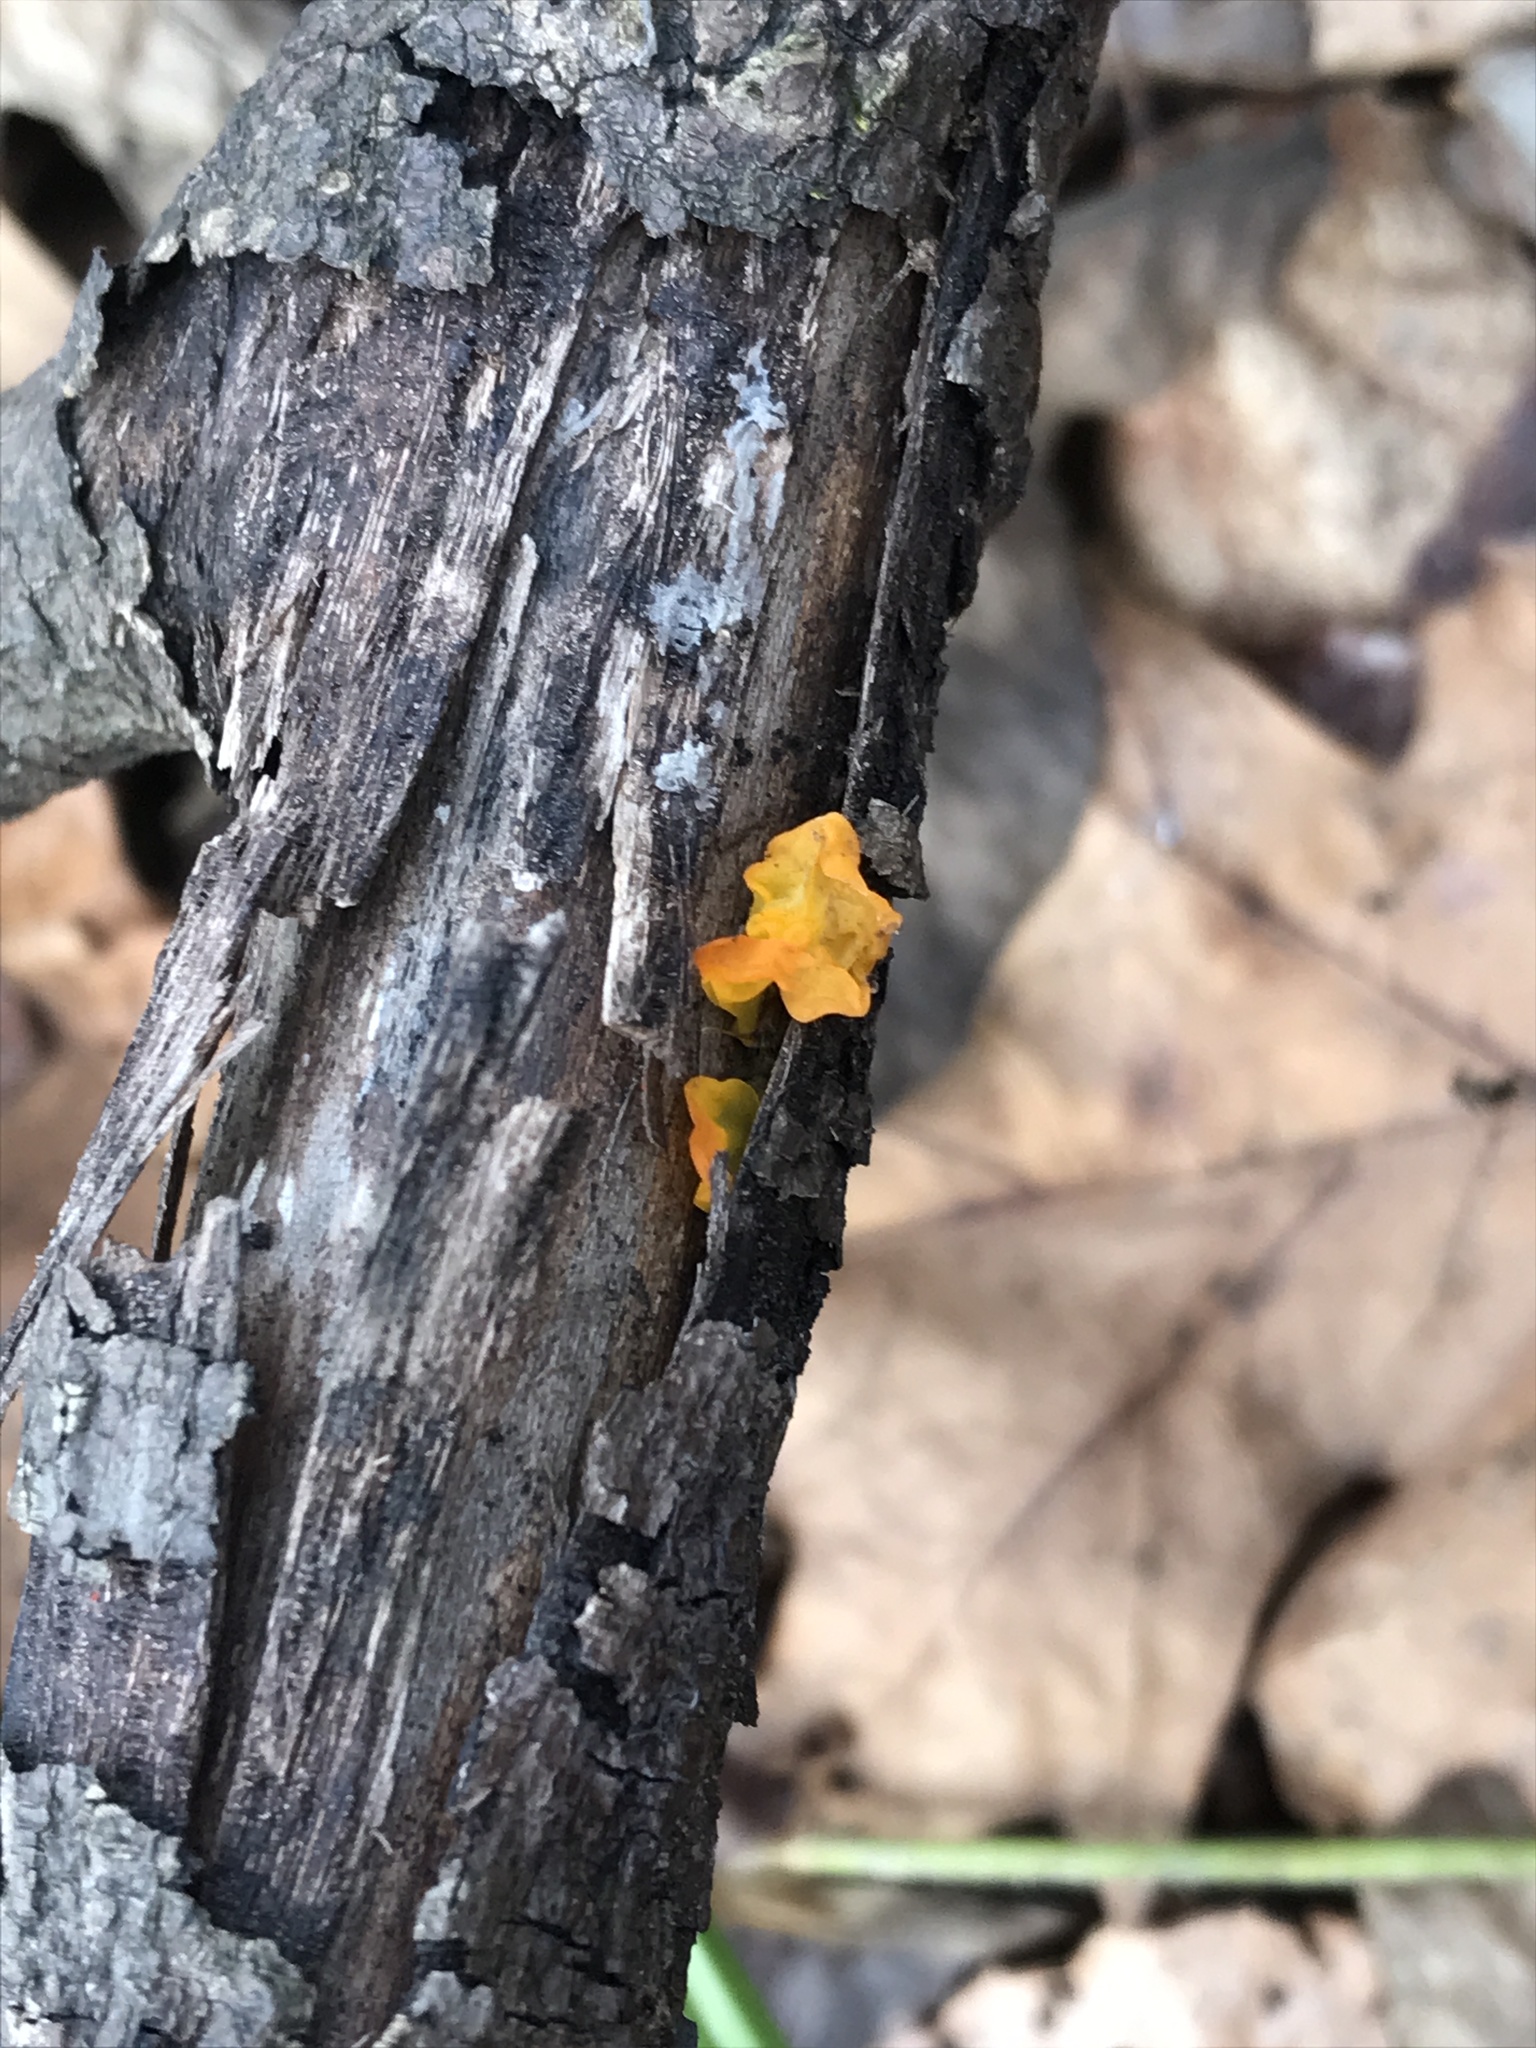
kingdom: Fungi
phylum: Basidiomycota
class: Dacrymycetes
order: Dacrymycetales
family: Dacrymycetaceae
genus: Dacrymyces
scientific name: Dacrymyces chrysospermus
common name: Orange jelly spot
